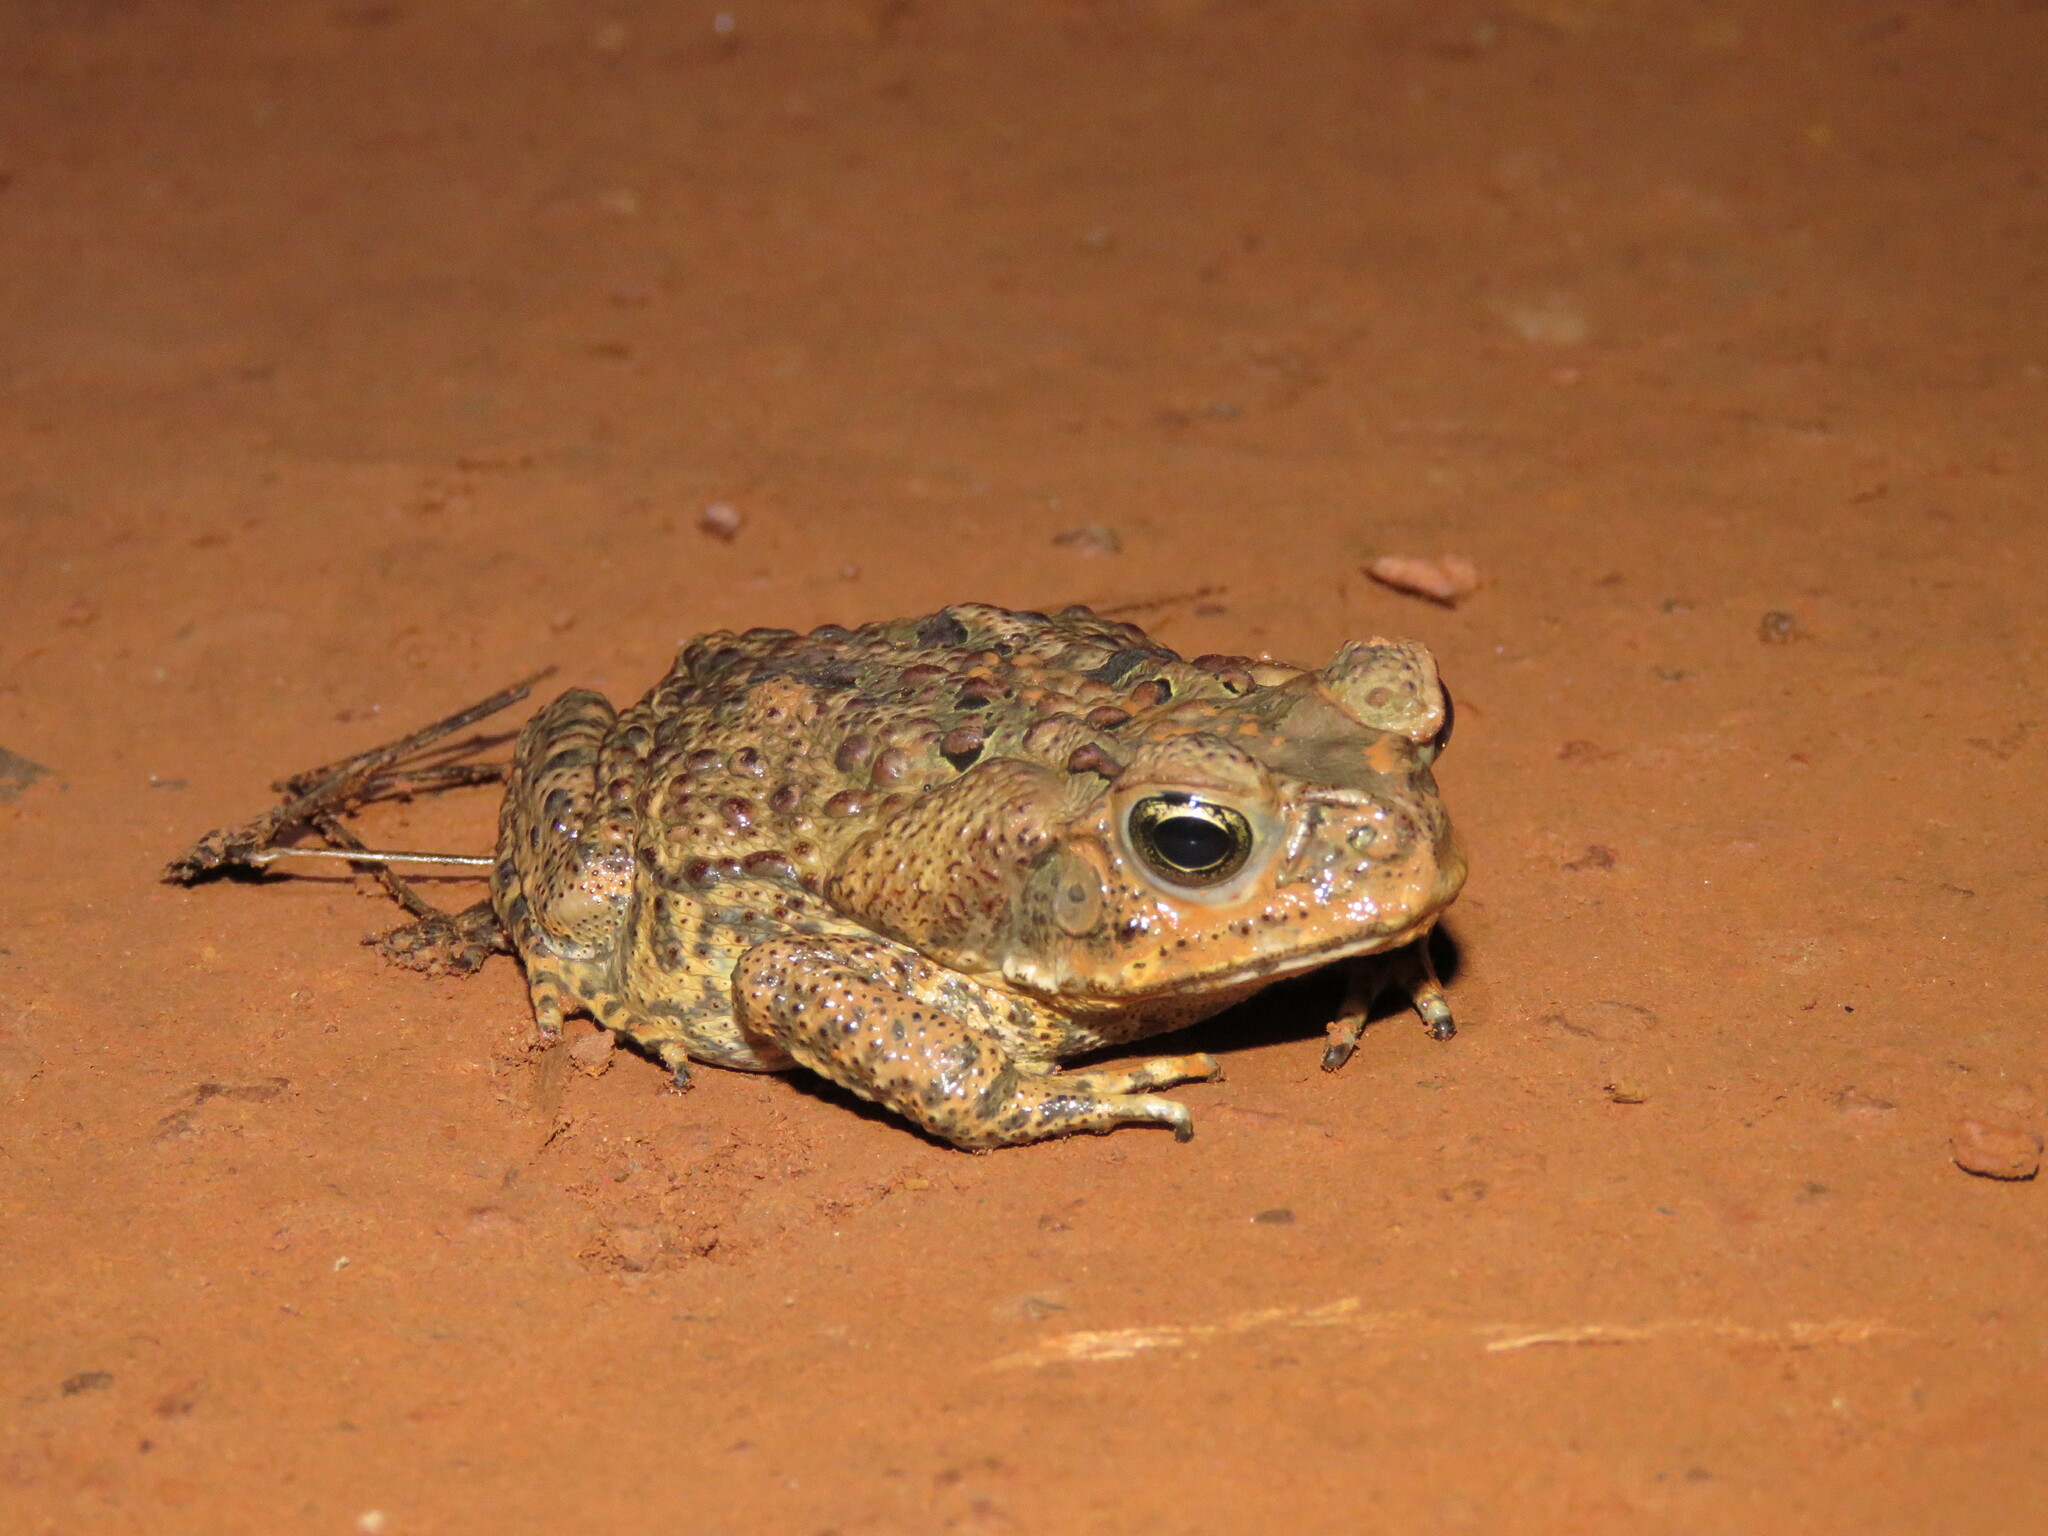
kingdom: Animalia
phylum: Chordata
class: Amphibia
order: Anura
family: Bufonidae
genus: Rhinella
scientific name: Rhinella marina
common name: Cane toad
